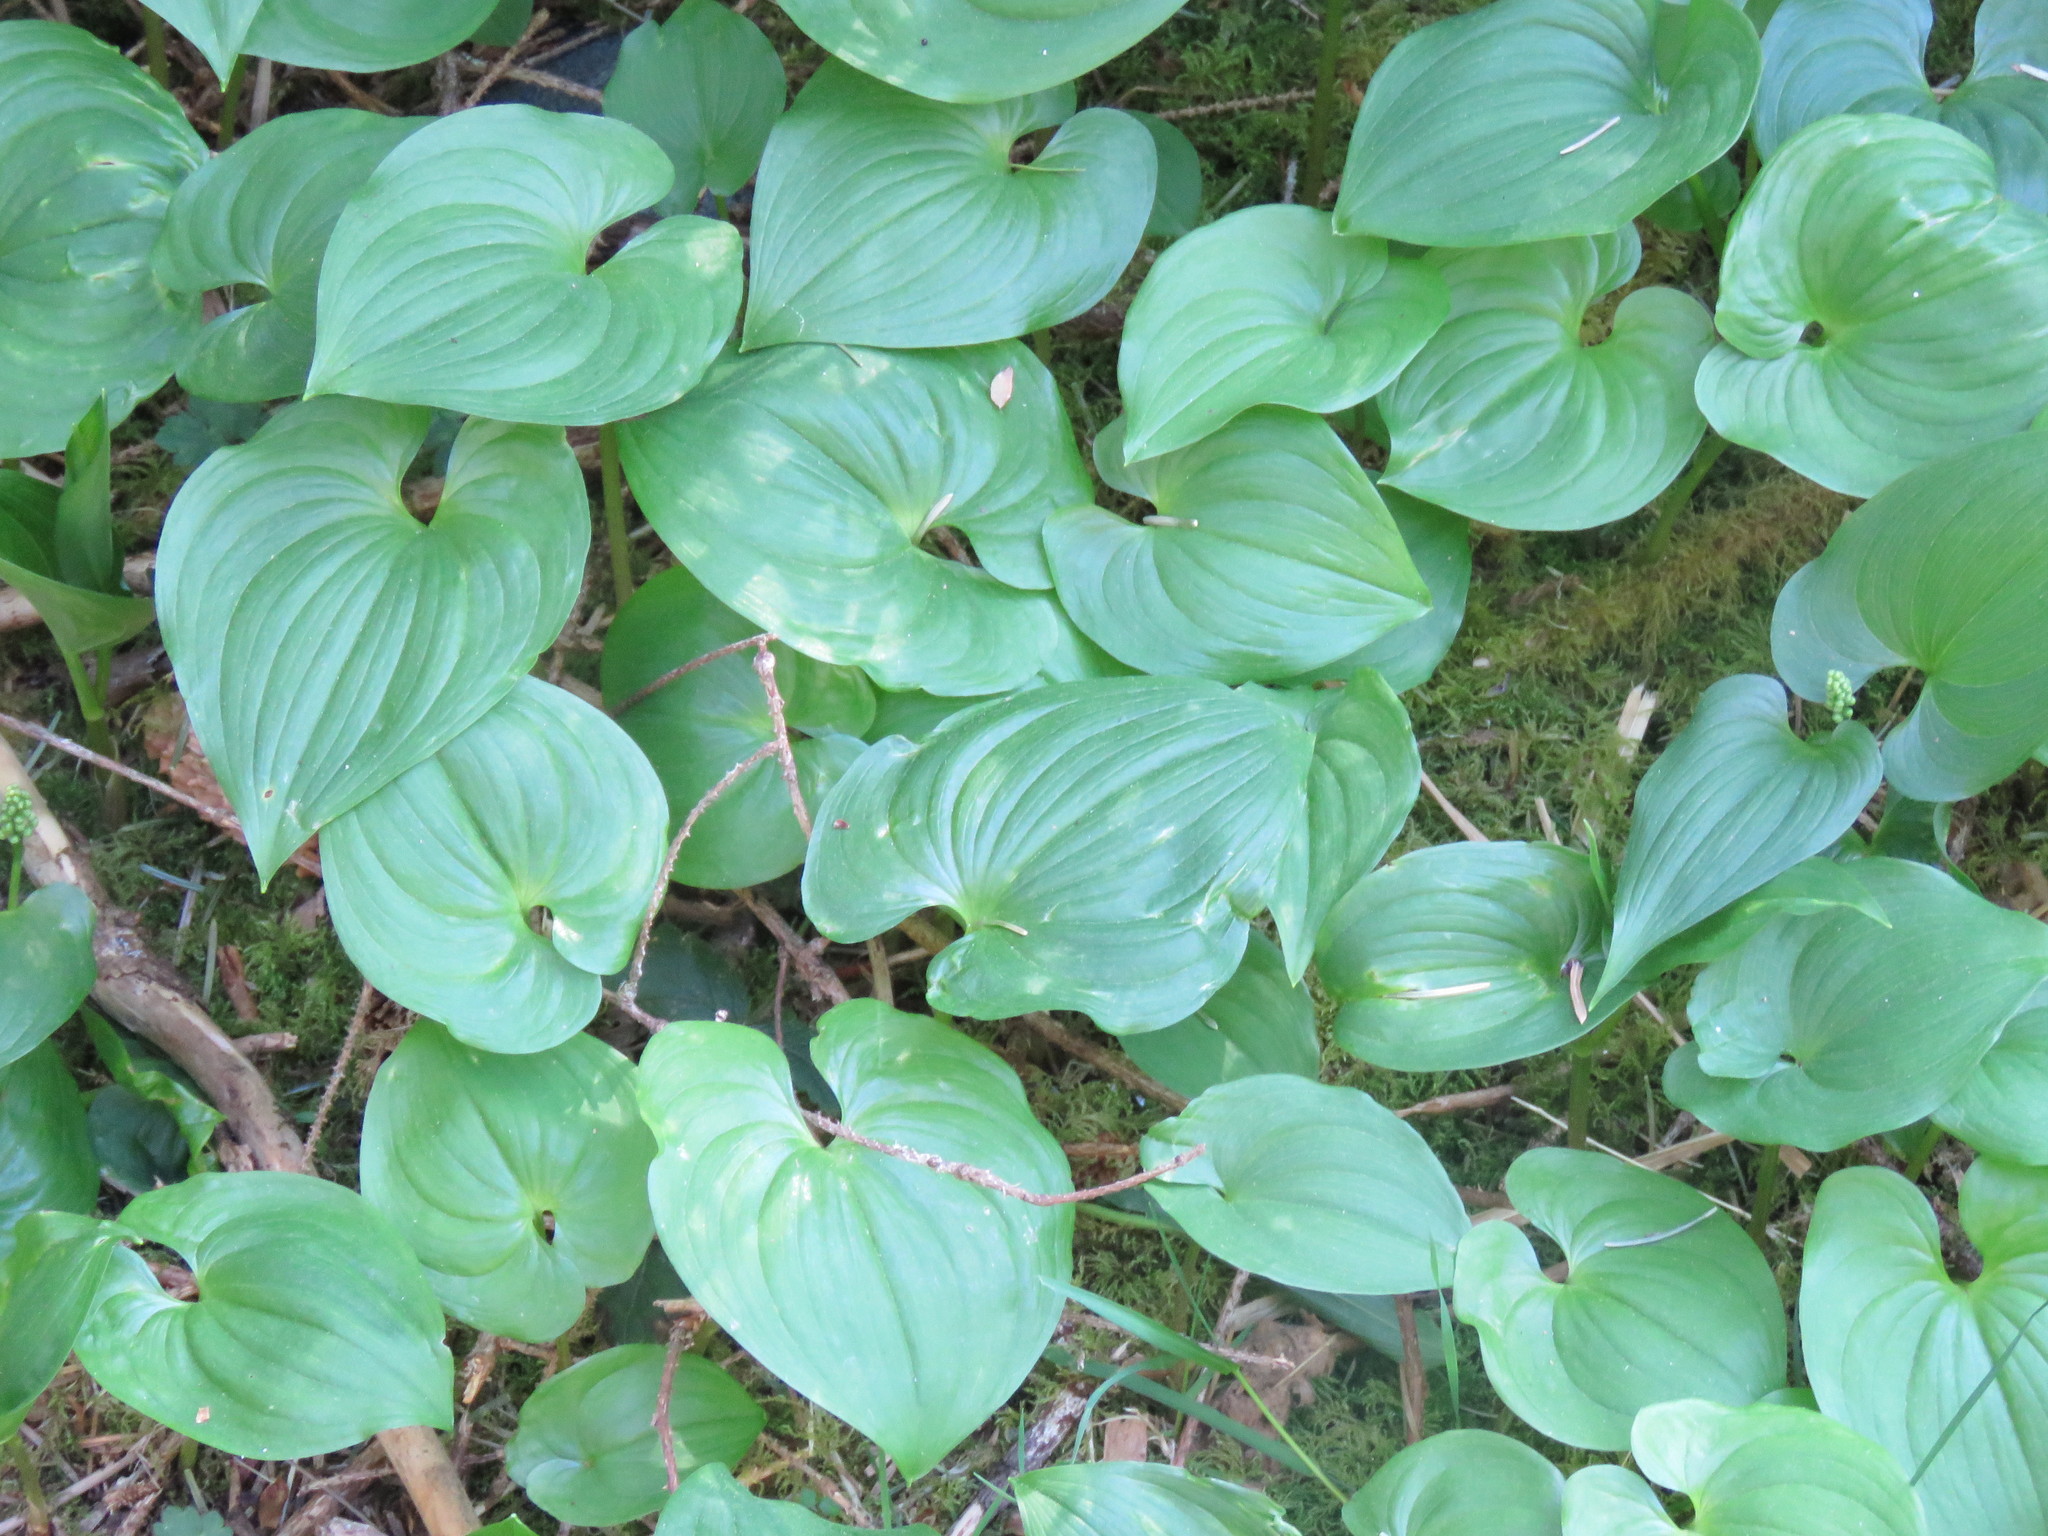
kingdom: Plantae
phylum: Tracheophyta
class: Liliopsida
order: Asparagales
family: Asparagaceae
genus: Maianthemum
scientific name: Maianthemum dilatatum
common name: False lily-of-the-valley
